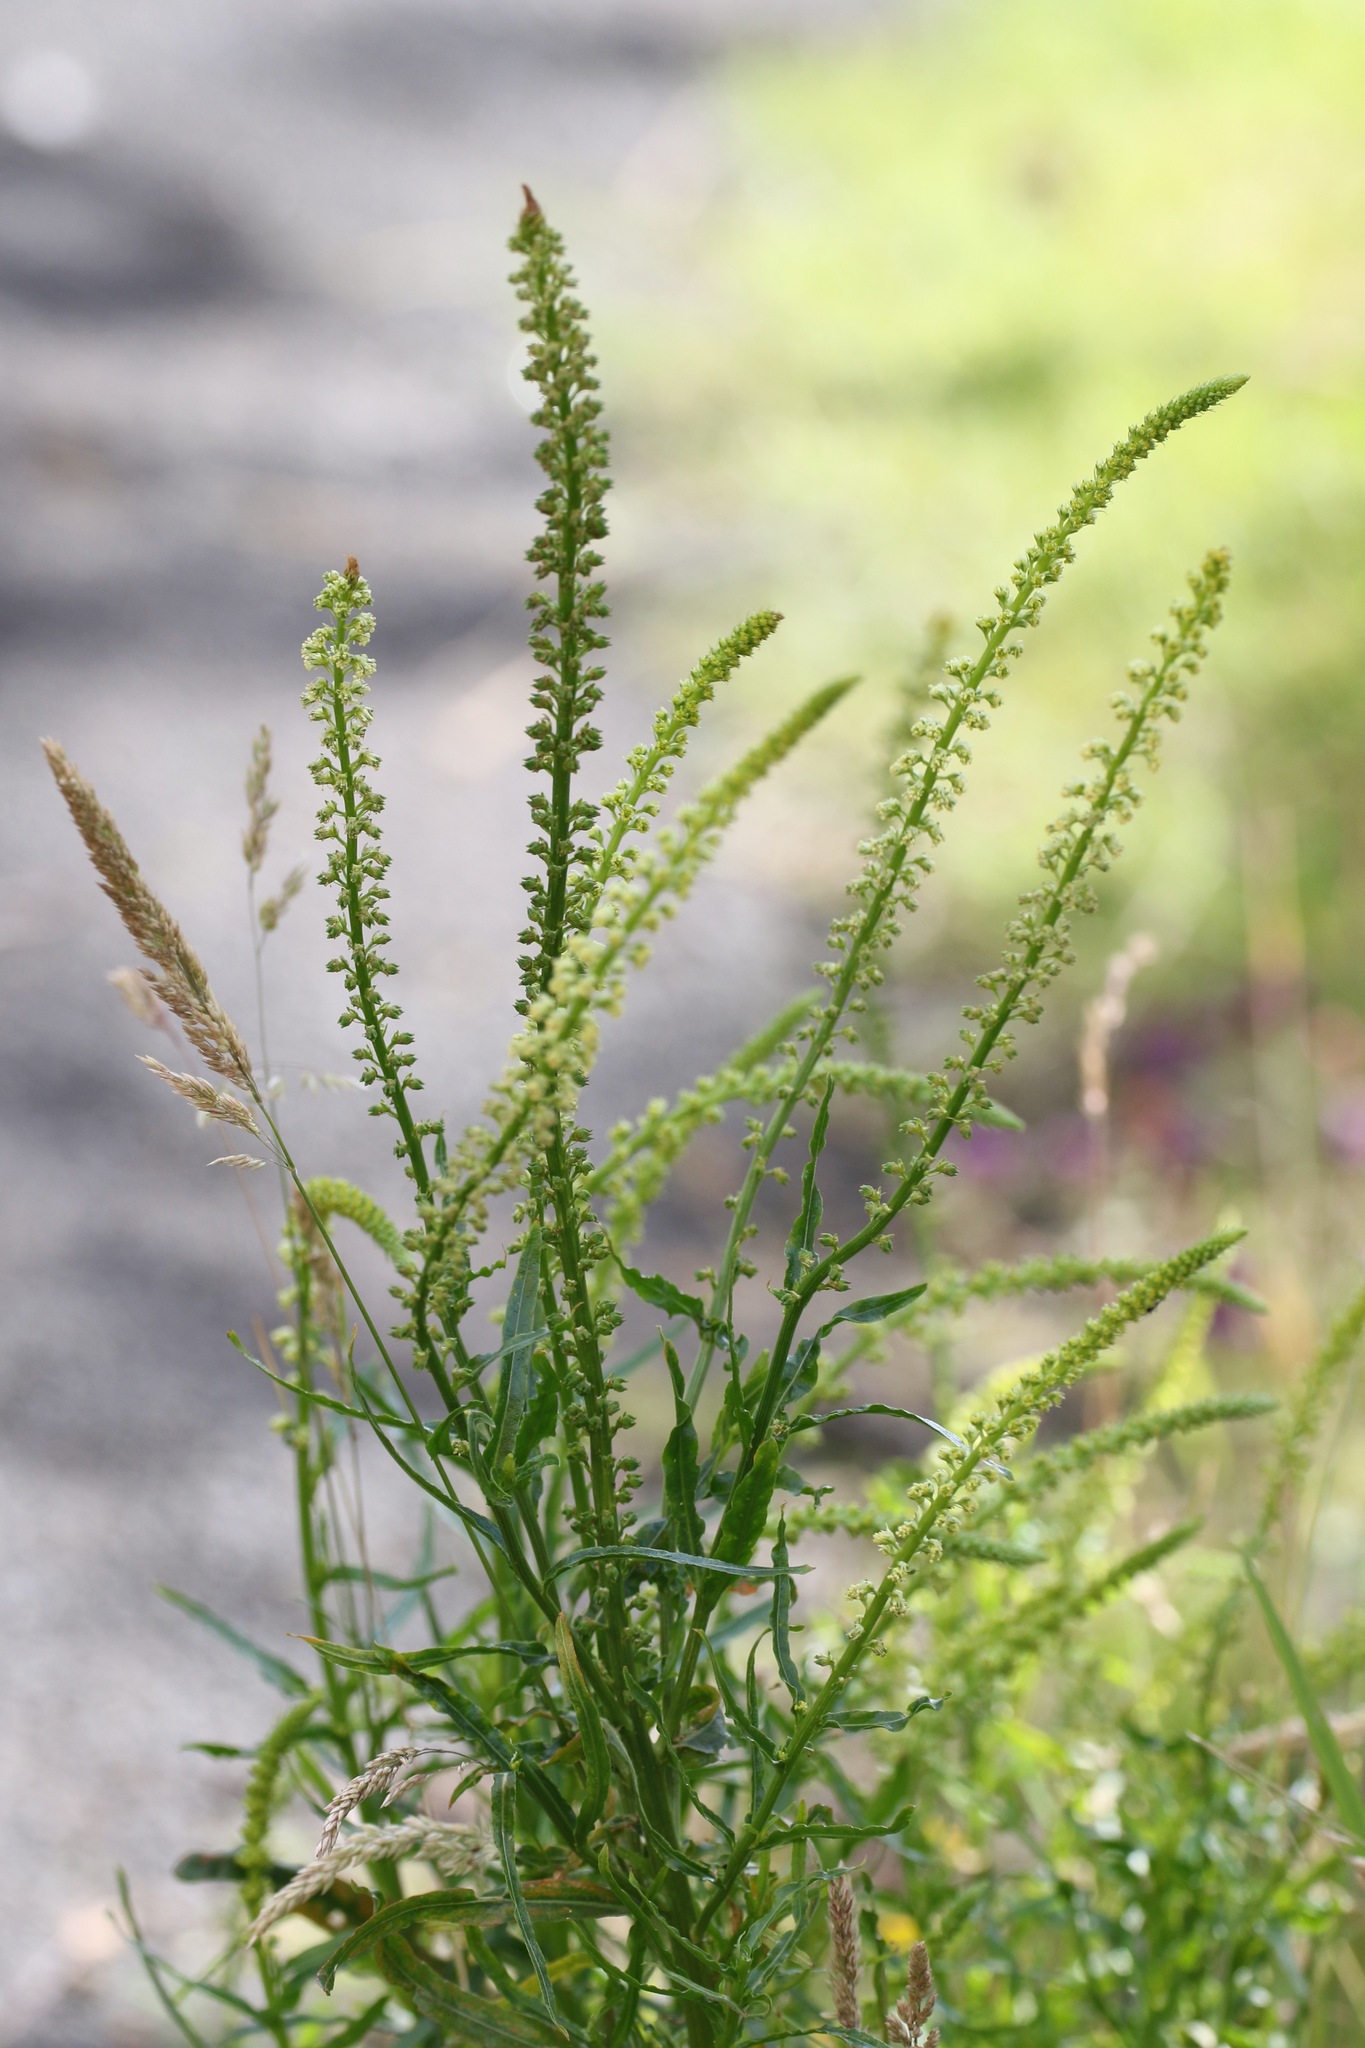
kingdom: Plantae
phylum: Tracheophyta
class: Magnoliopsida
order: Brassicales
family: Resedaceae
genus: Reseda
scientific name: Reseda luteola
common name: Weld
